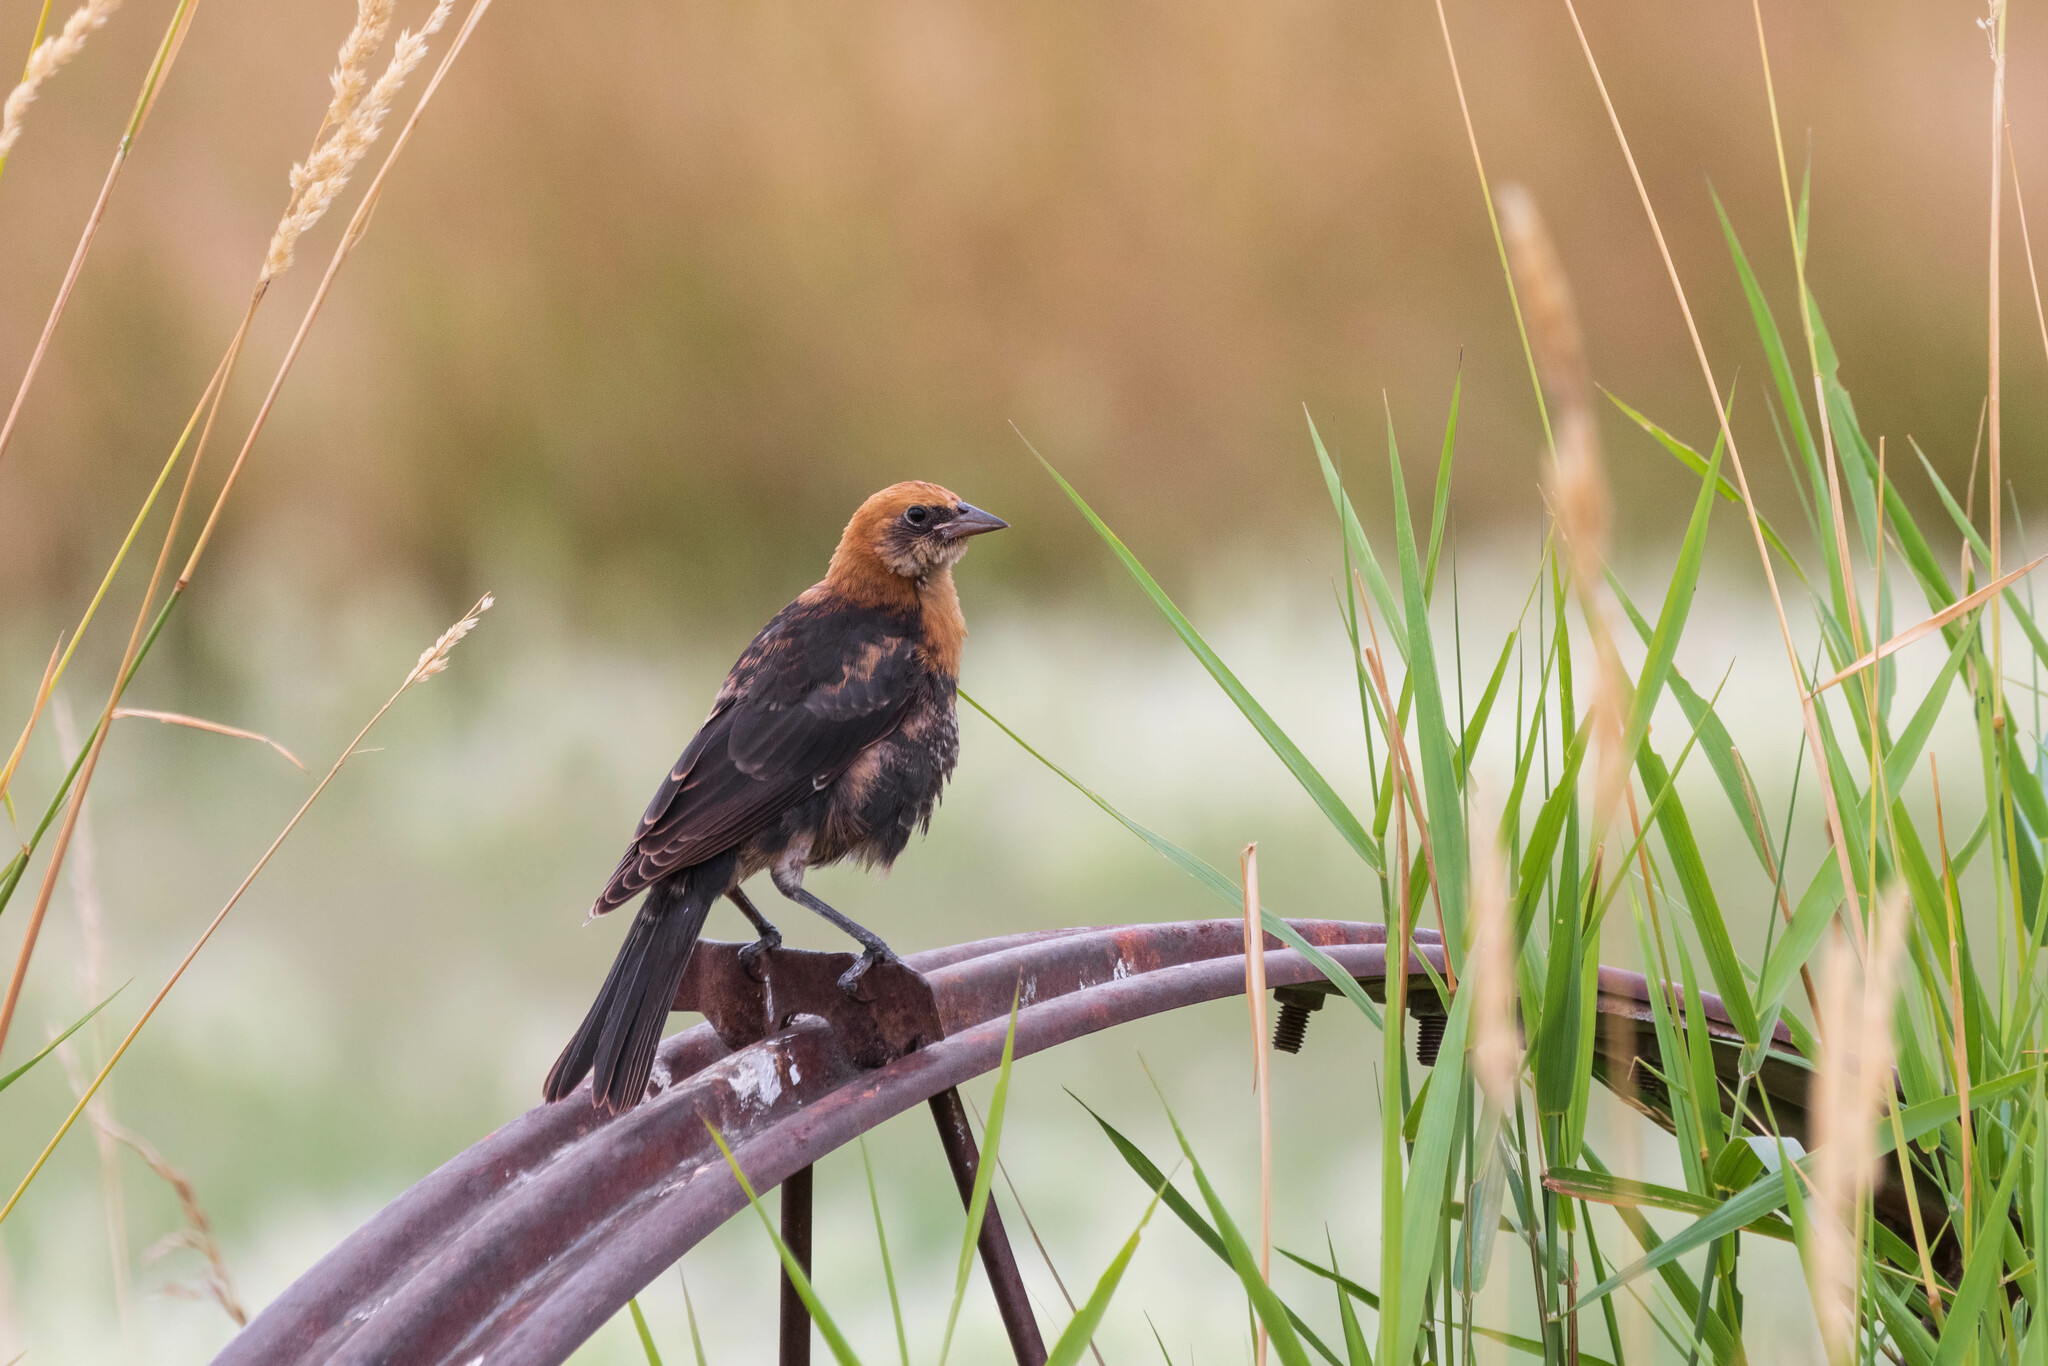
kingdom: Animalia
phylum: Chordata
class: Aves
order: Passeriformes
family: Icteridae
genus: Xanthocephalus
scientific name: Xanthocephalus xanthocephalus
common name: Yellow-headed blackbird
